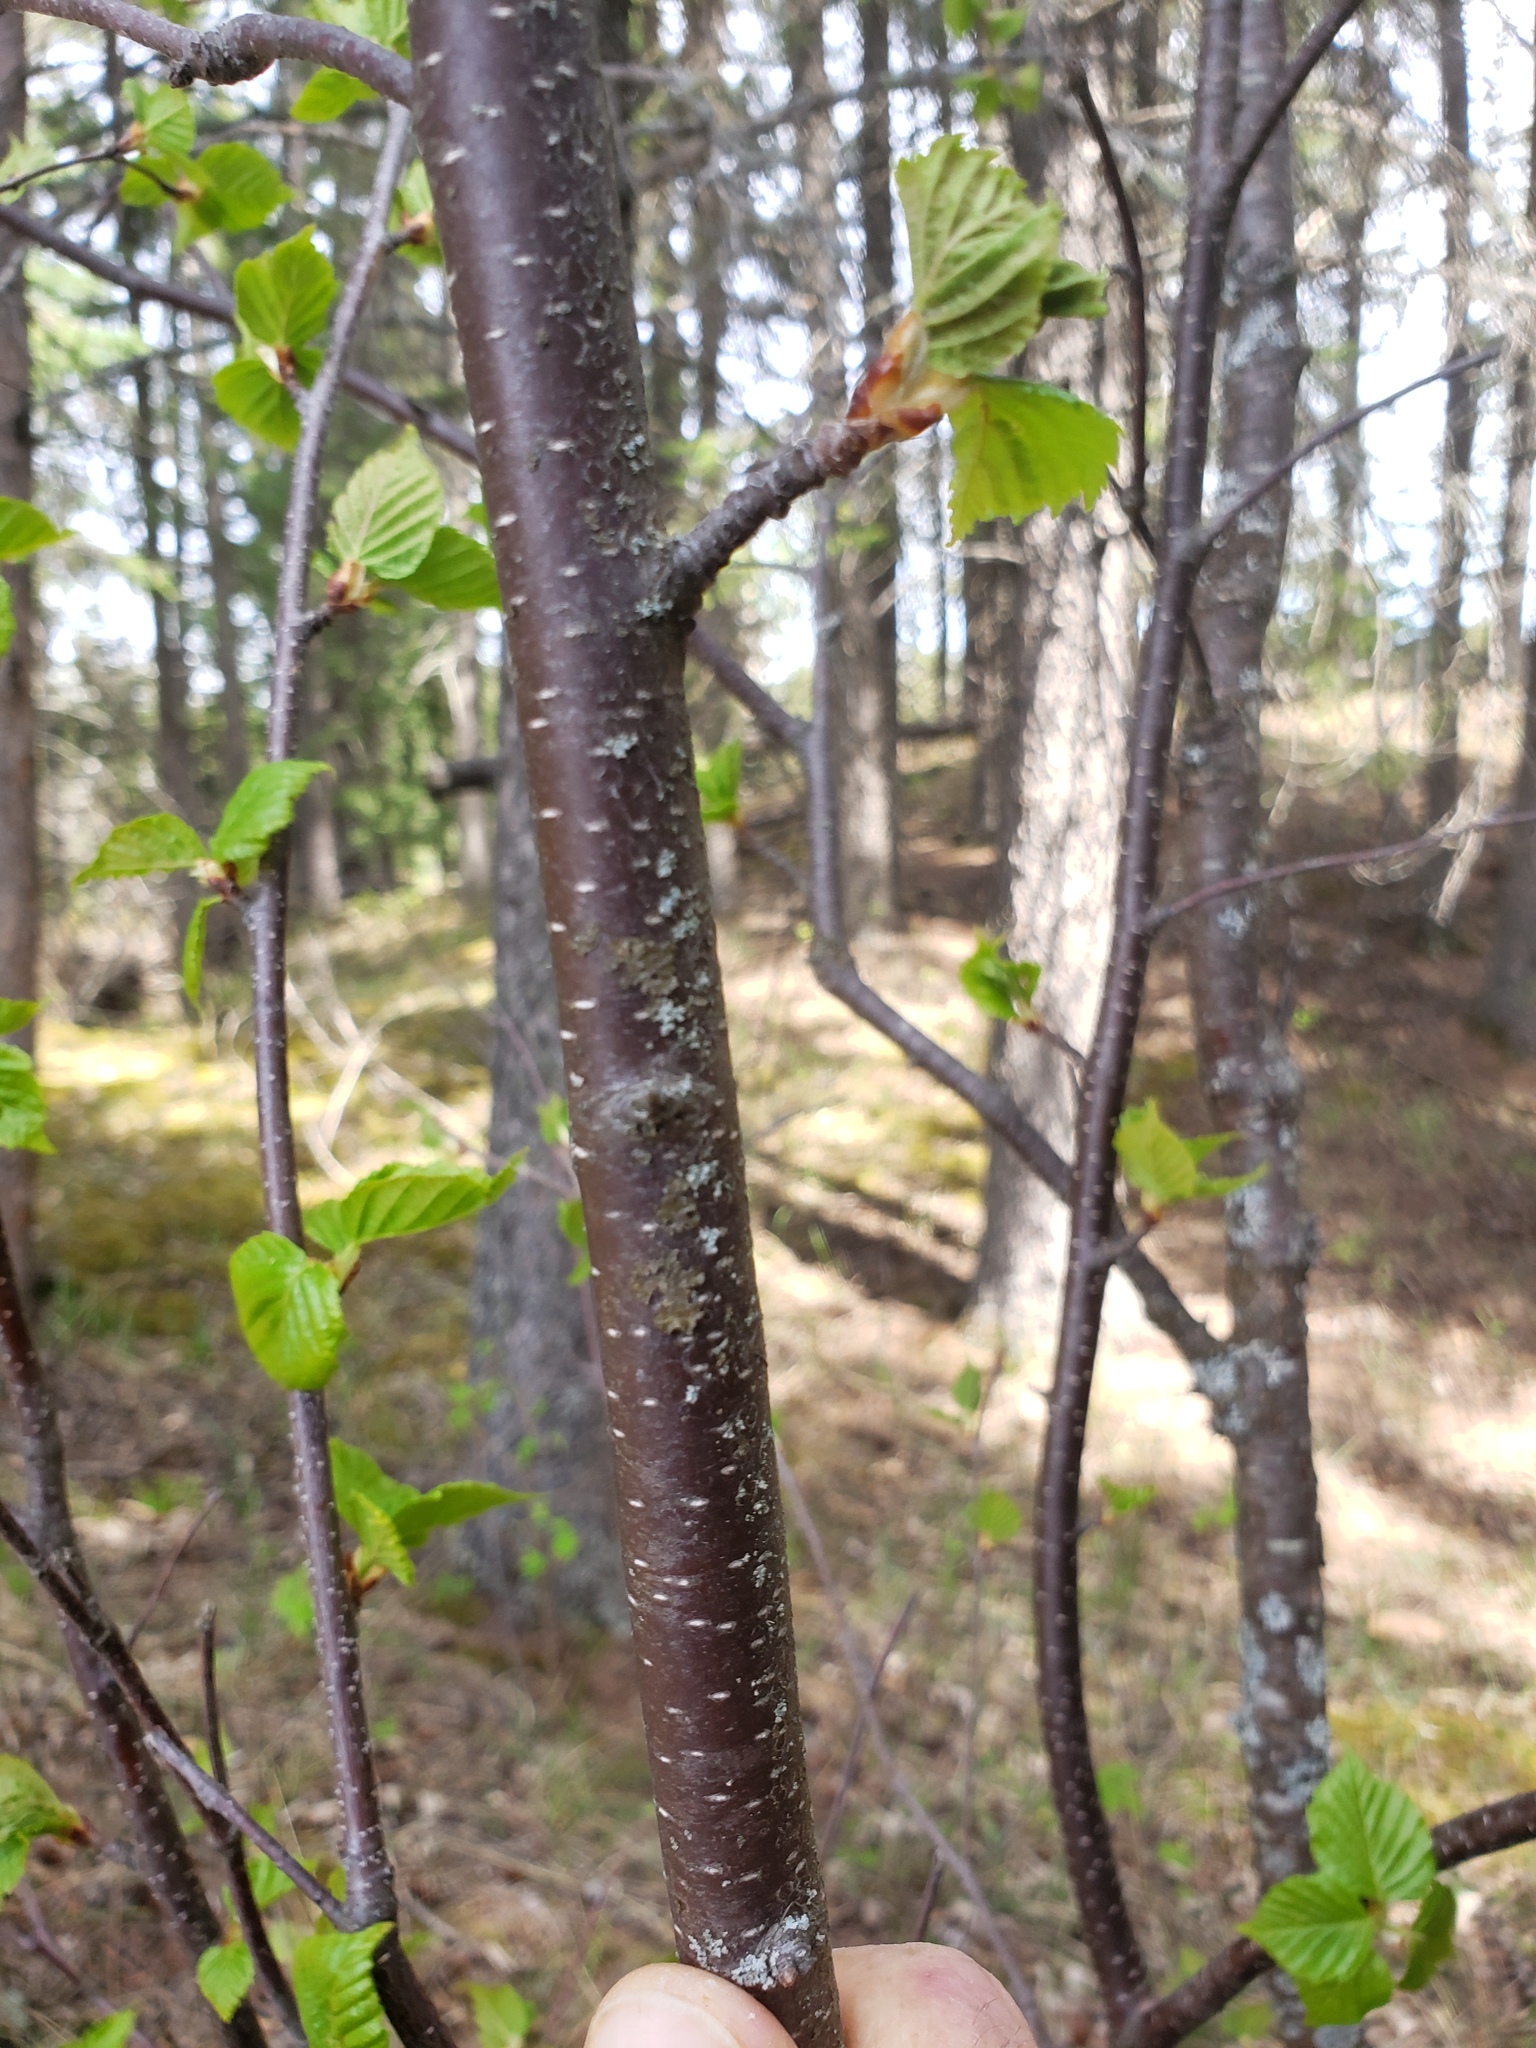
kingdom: Plantae
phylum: Tracheophyta
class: Magnoliopsida
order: Fagales
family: Betulaceae
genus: Betula
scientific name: Betula papyrifera
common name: Paper birch
